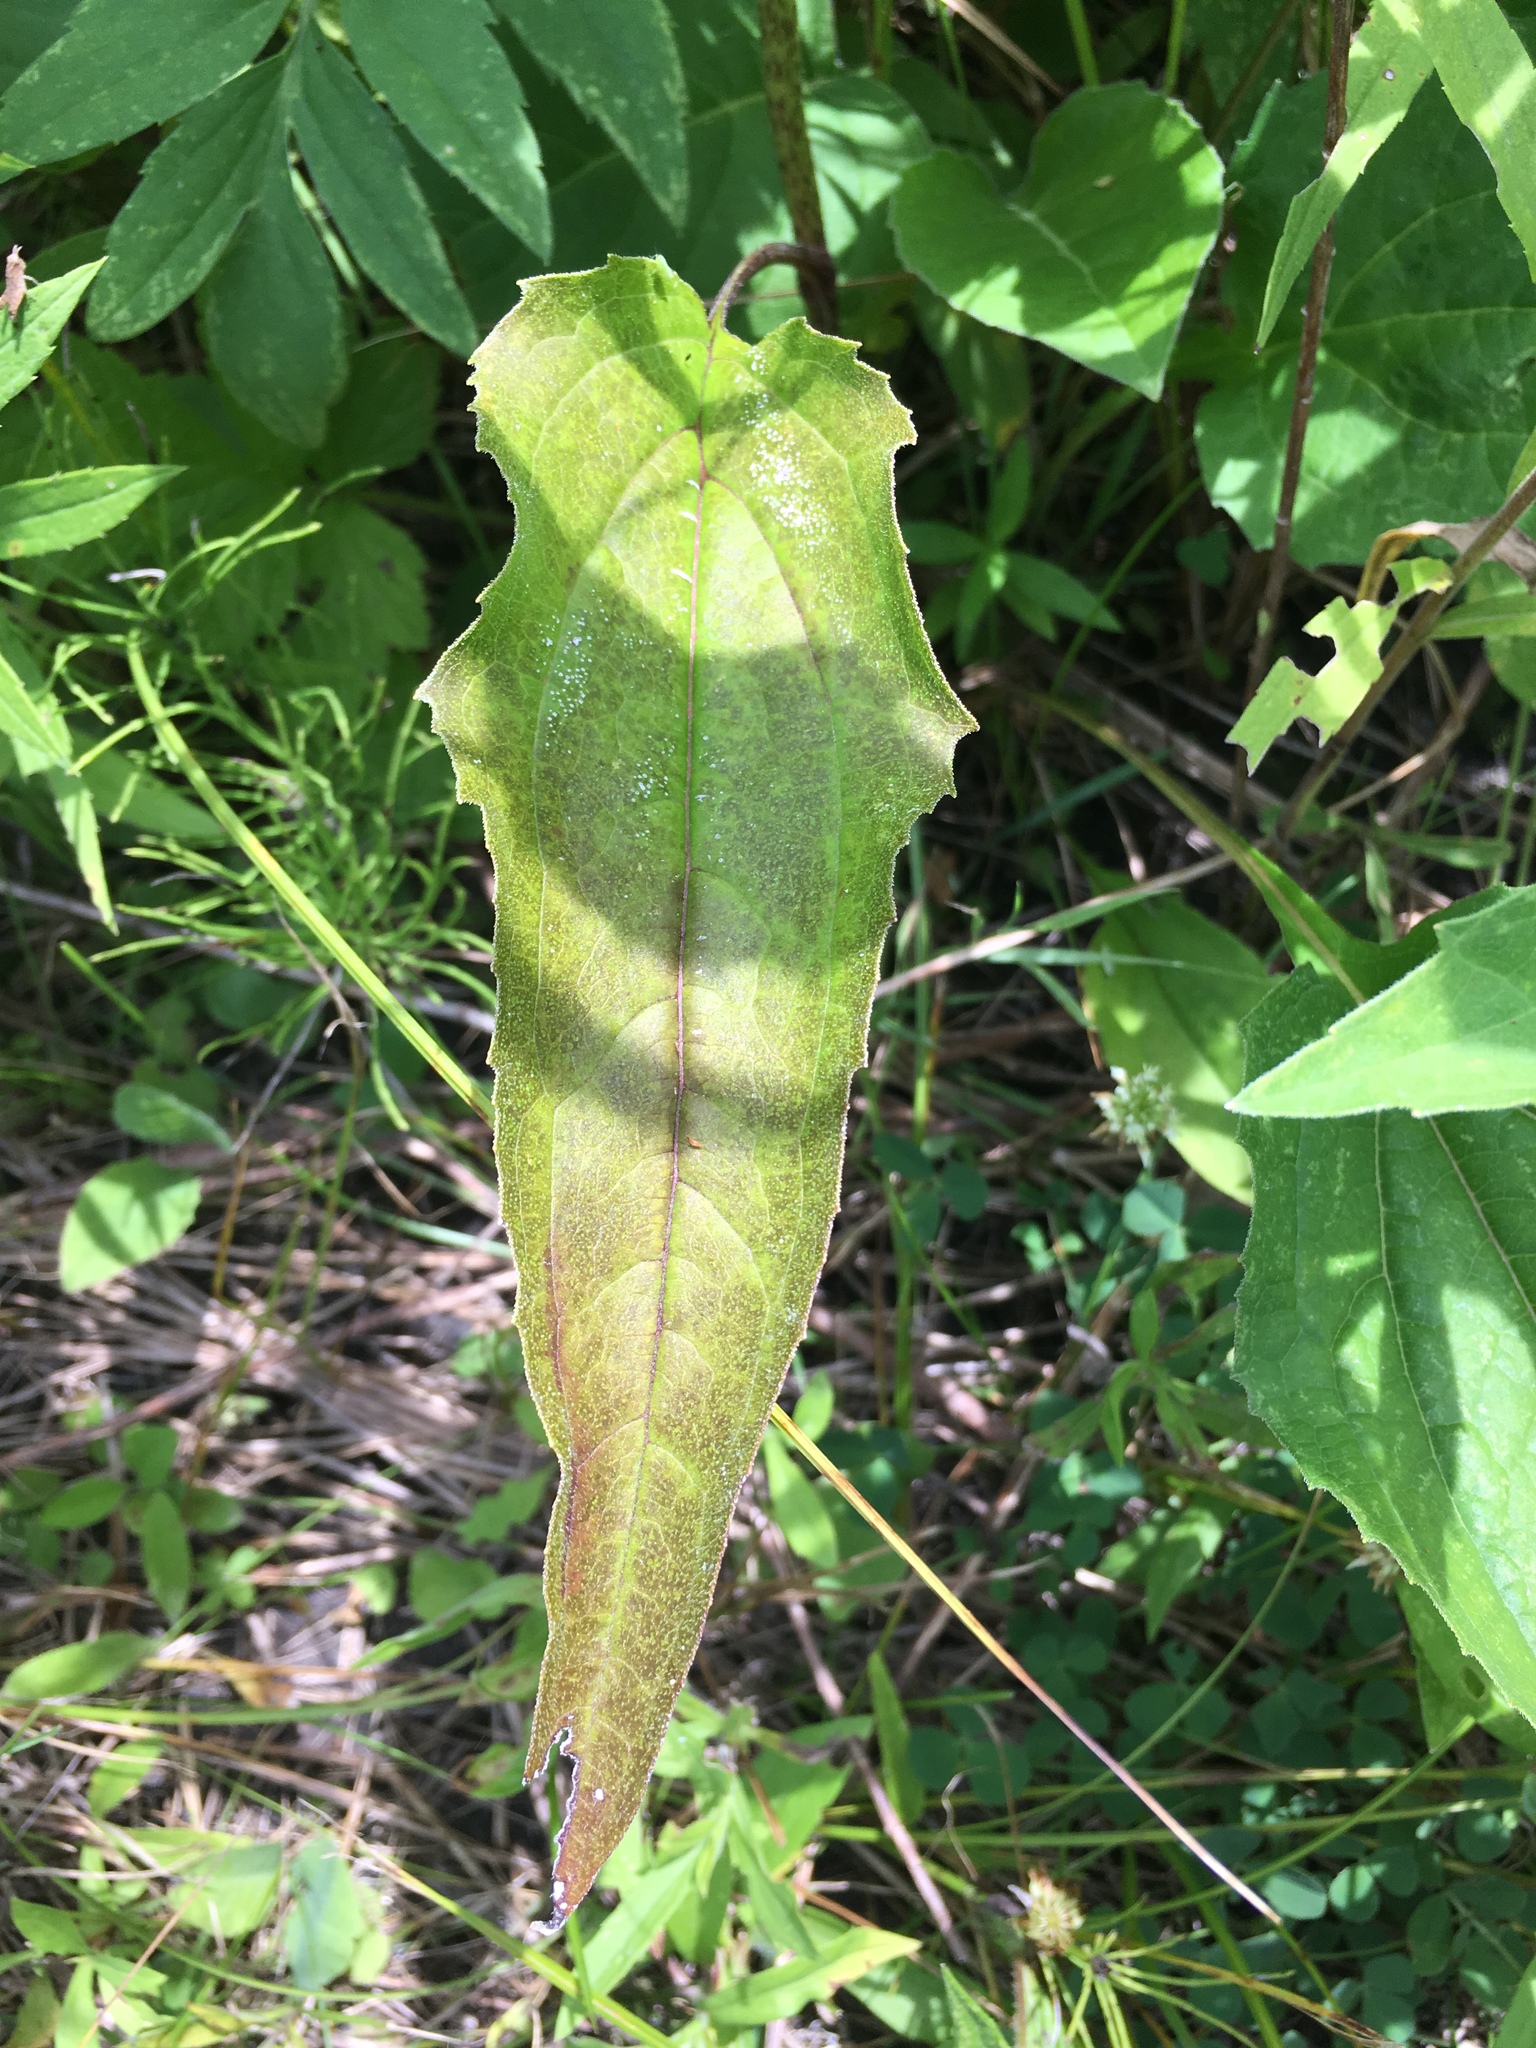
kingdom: Plantae
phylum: Tracheophyta
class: Magnoliopsida
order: Asterales
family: Asteraceae
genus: Echinacea
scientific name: Echinacea purpurea
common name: Broad-leaved purple coneflower
